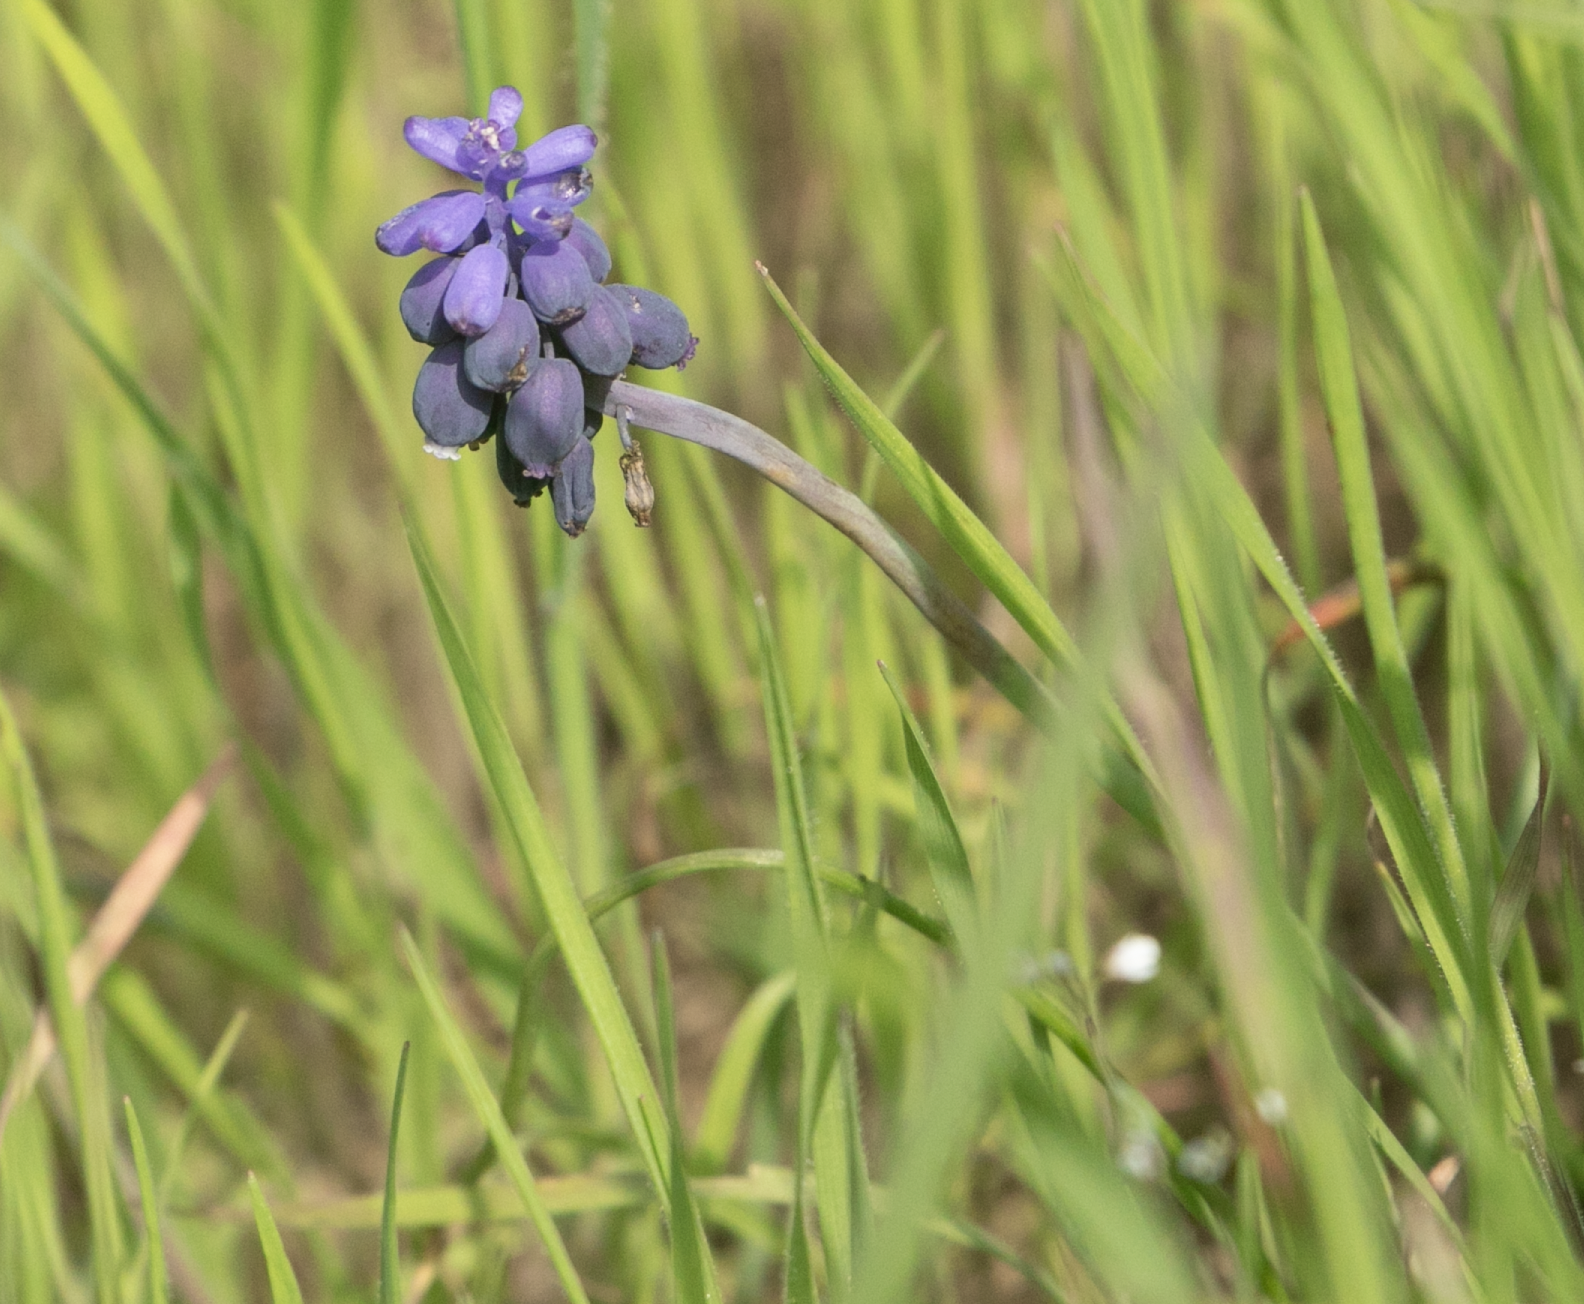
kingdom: Plantae
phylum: Tracheophyta
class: Liliopsida
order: Asparagales
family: Asparagaceae
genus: Muscari
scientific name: Muscari neglectum
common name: Grape-hyacinth
